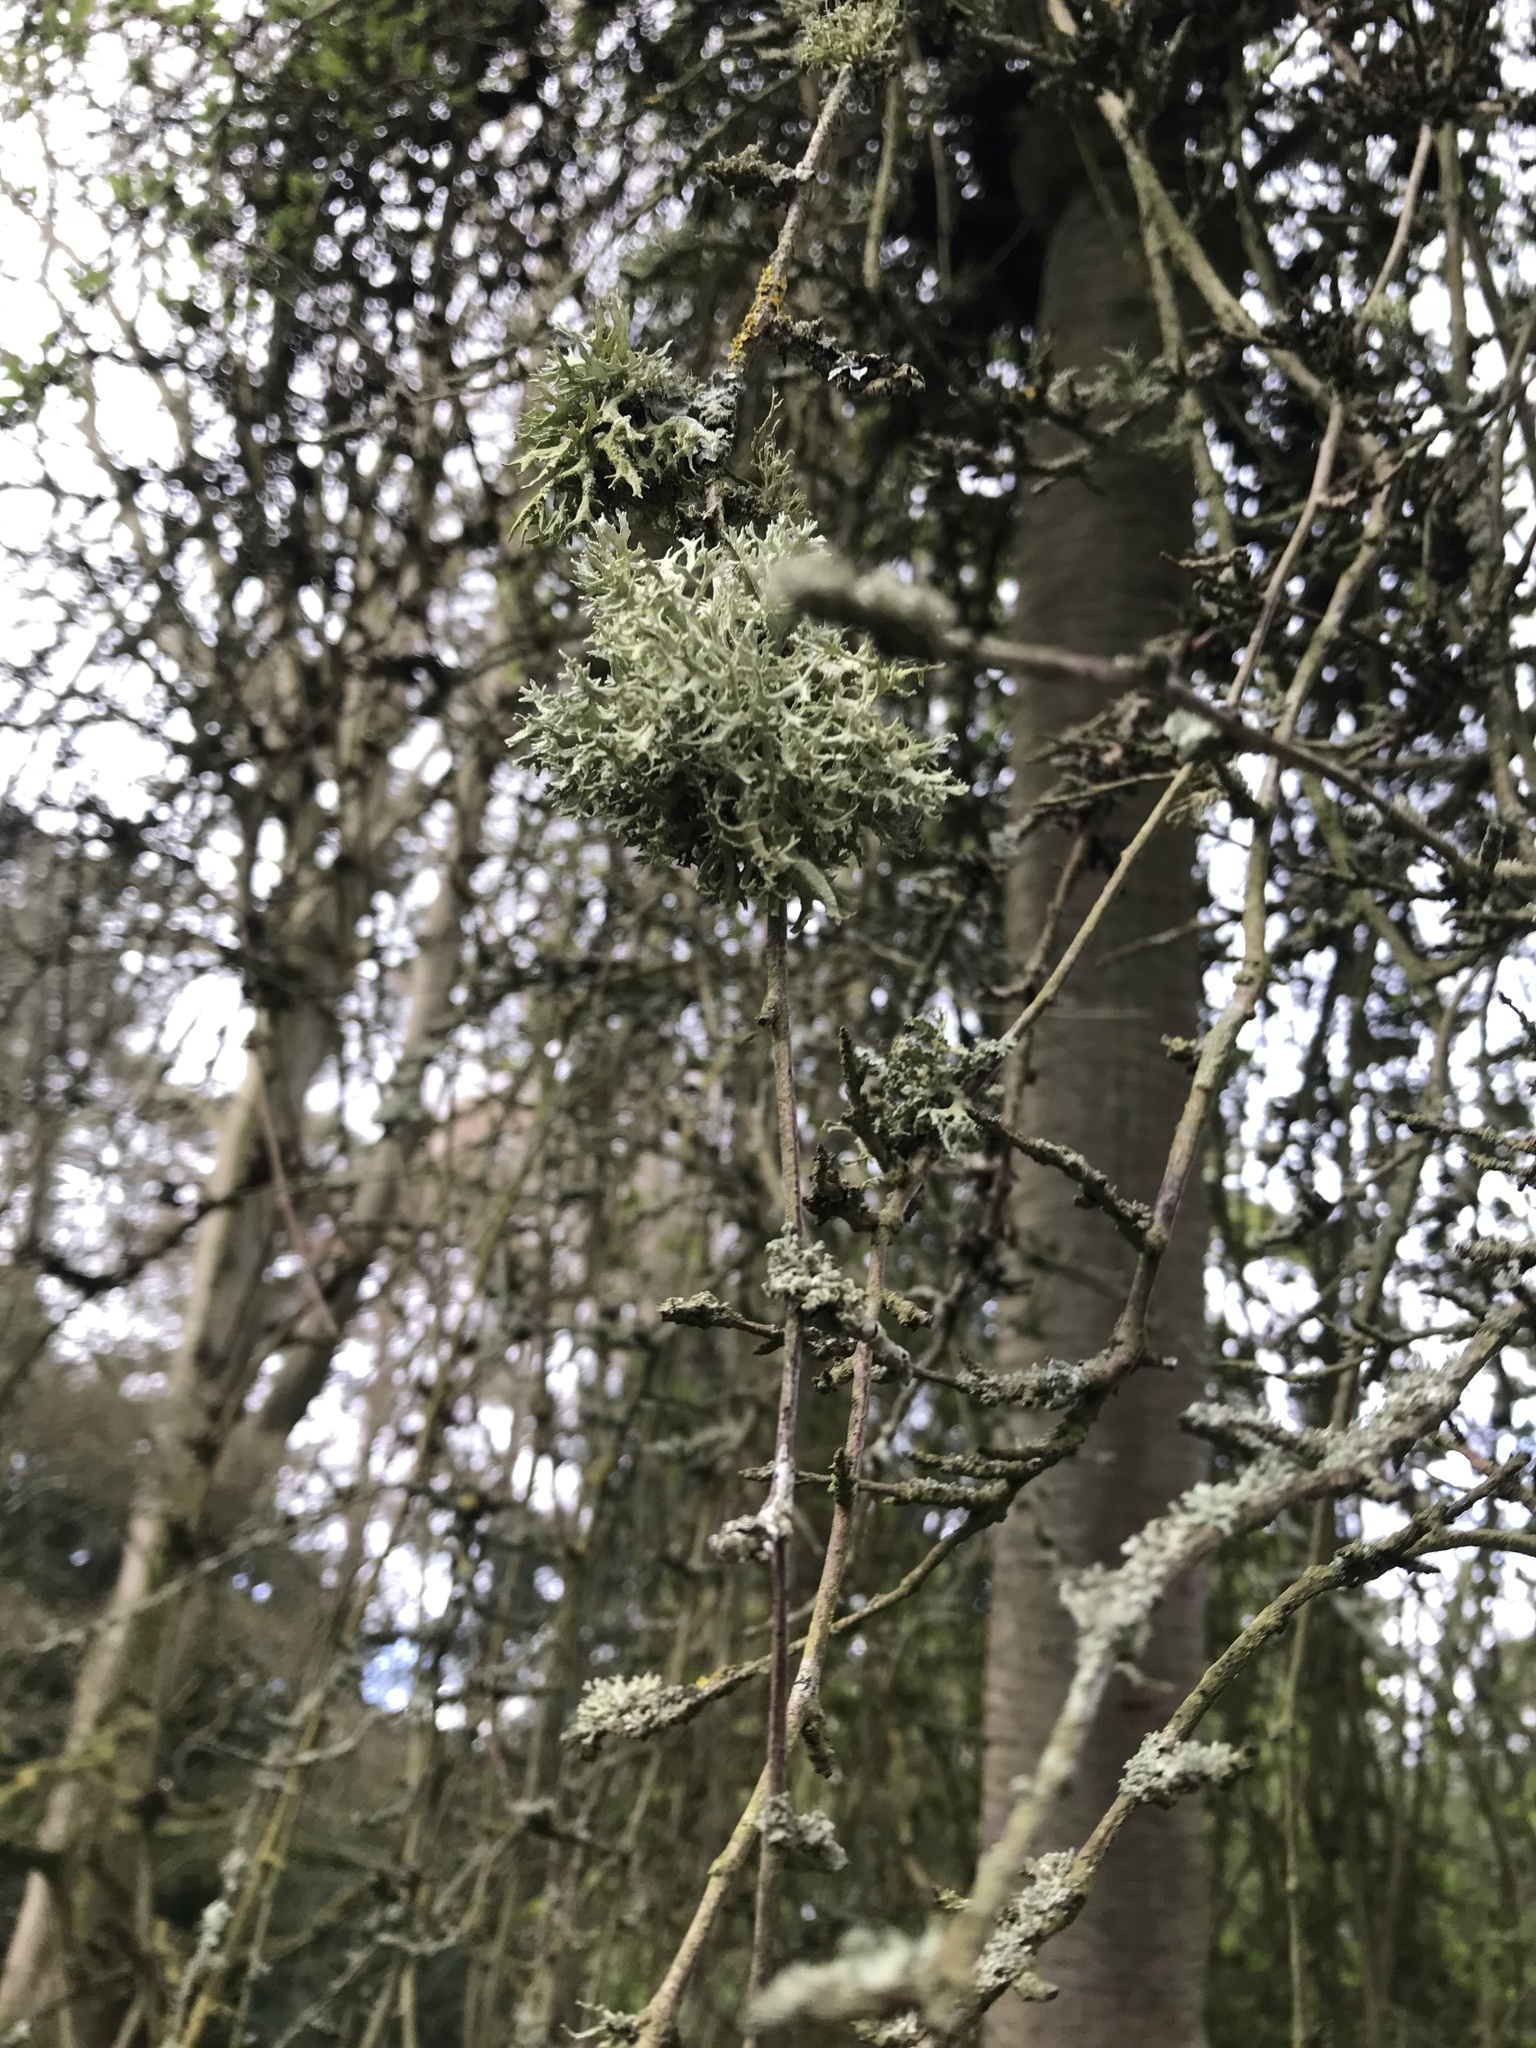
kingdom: Fungi
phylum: Ascomycota
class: Lecanoromycetes
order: Lecanorales
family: Parmeliaceae
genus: Evernia
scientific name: Evernia prunastri
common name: Oak moss
